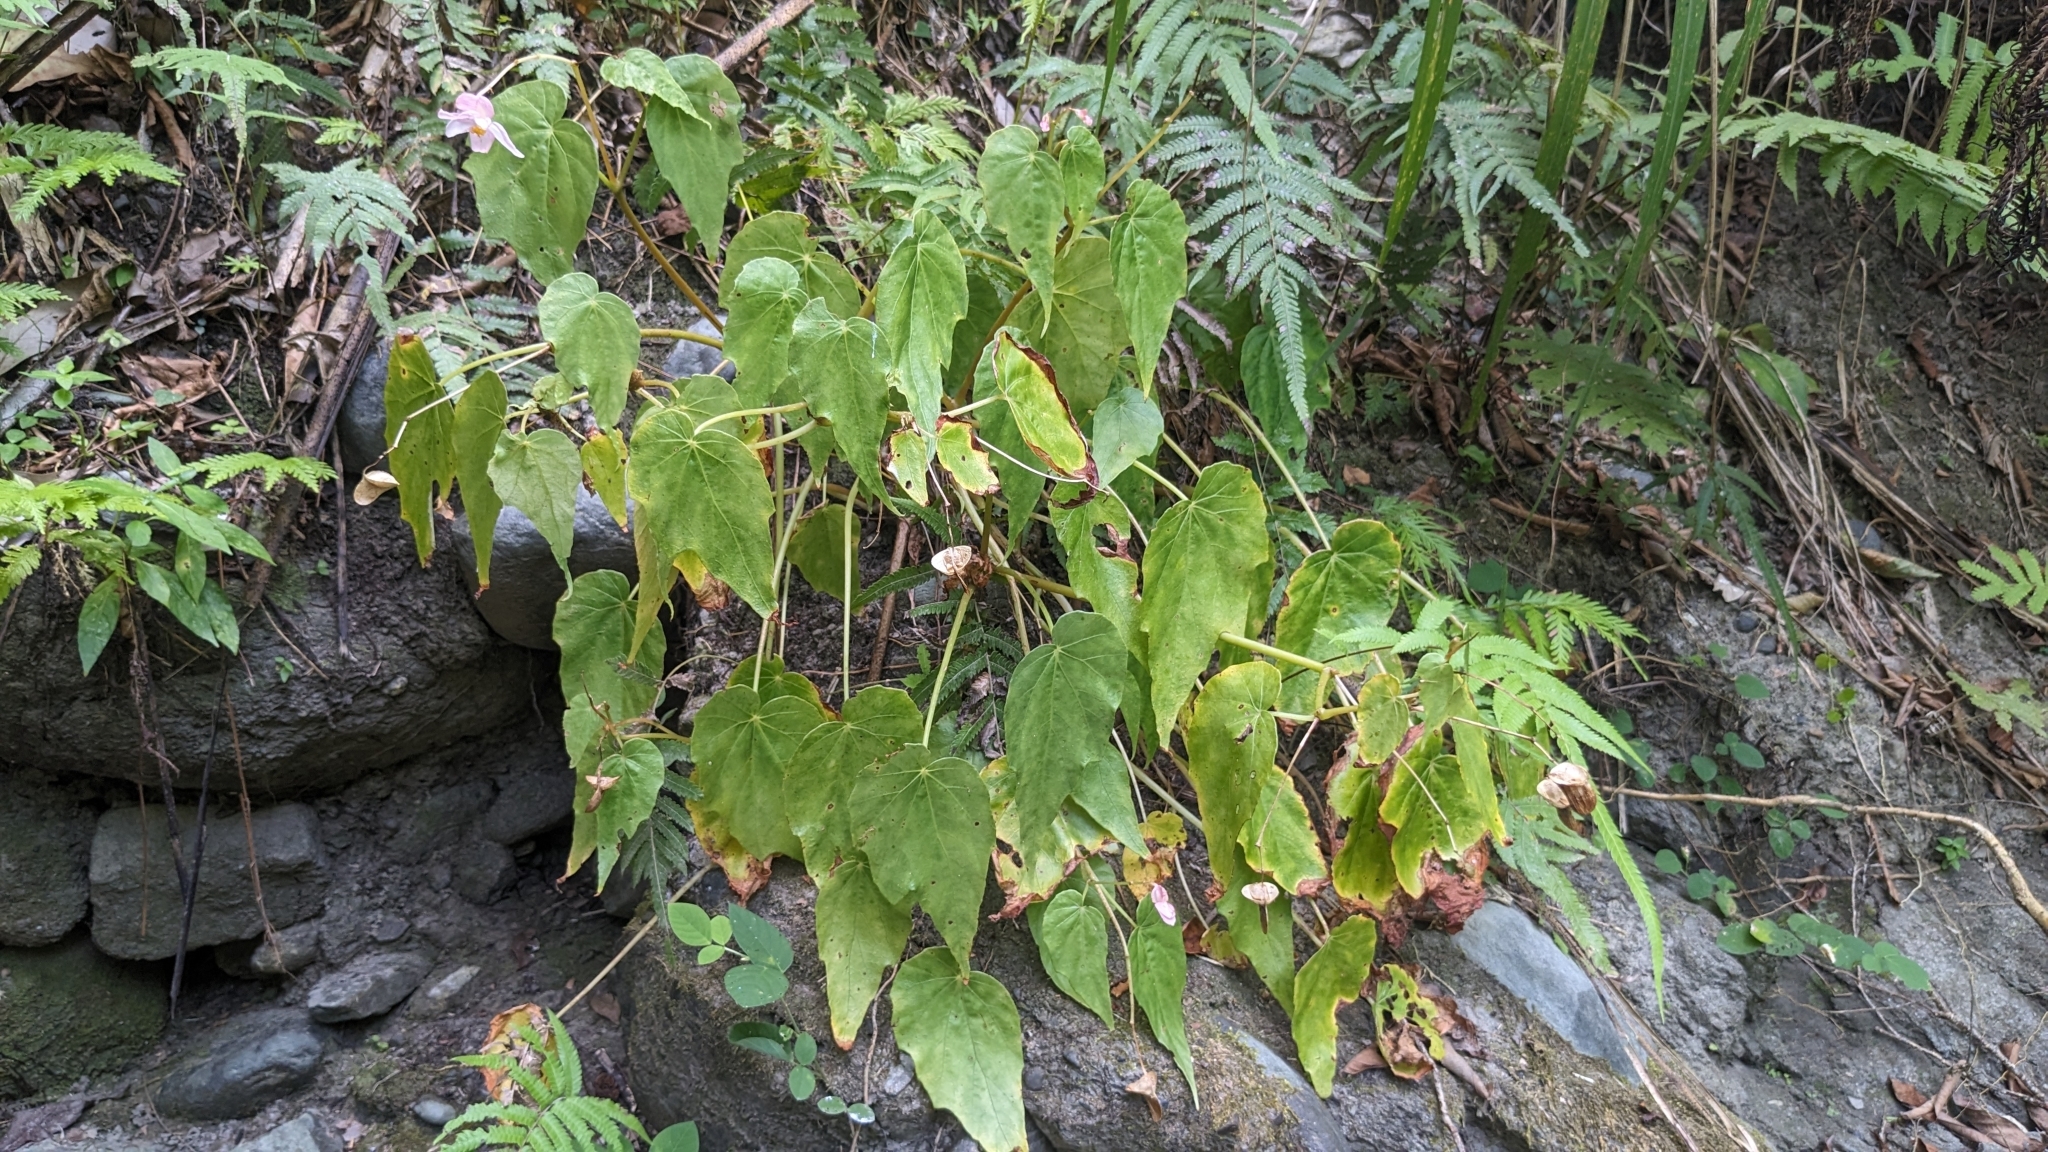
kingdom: Plantae
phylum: Tracheophyta
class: Magnoliopsida
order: Cucurbitales
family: Begoniaceae
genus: Begonia
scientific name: Begonia formosana
